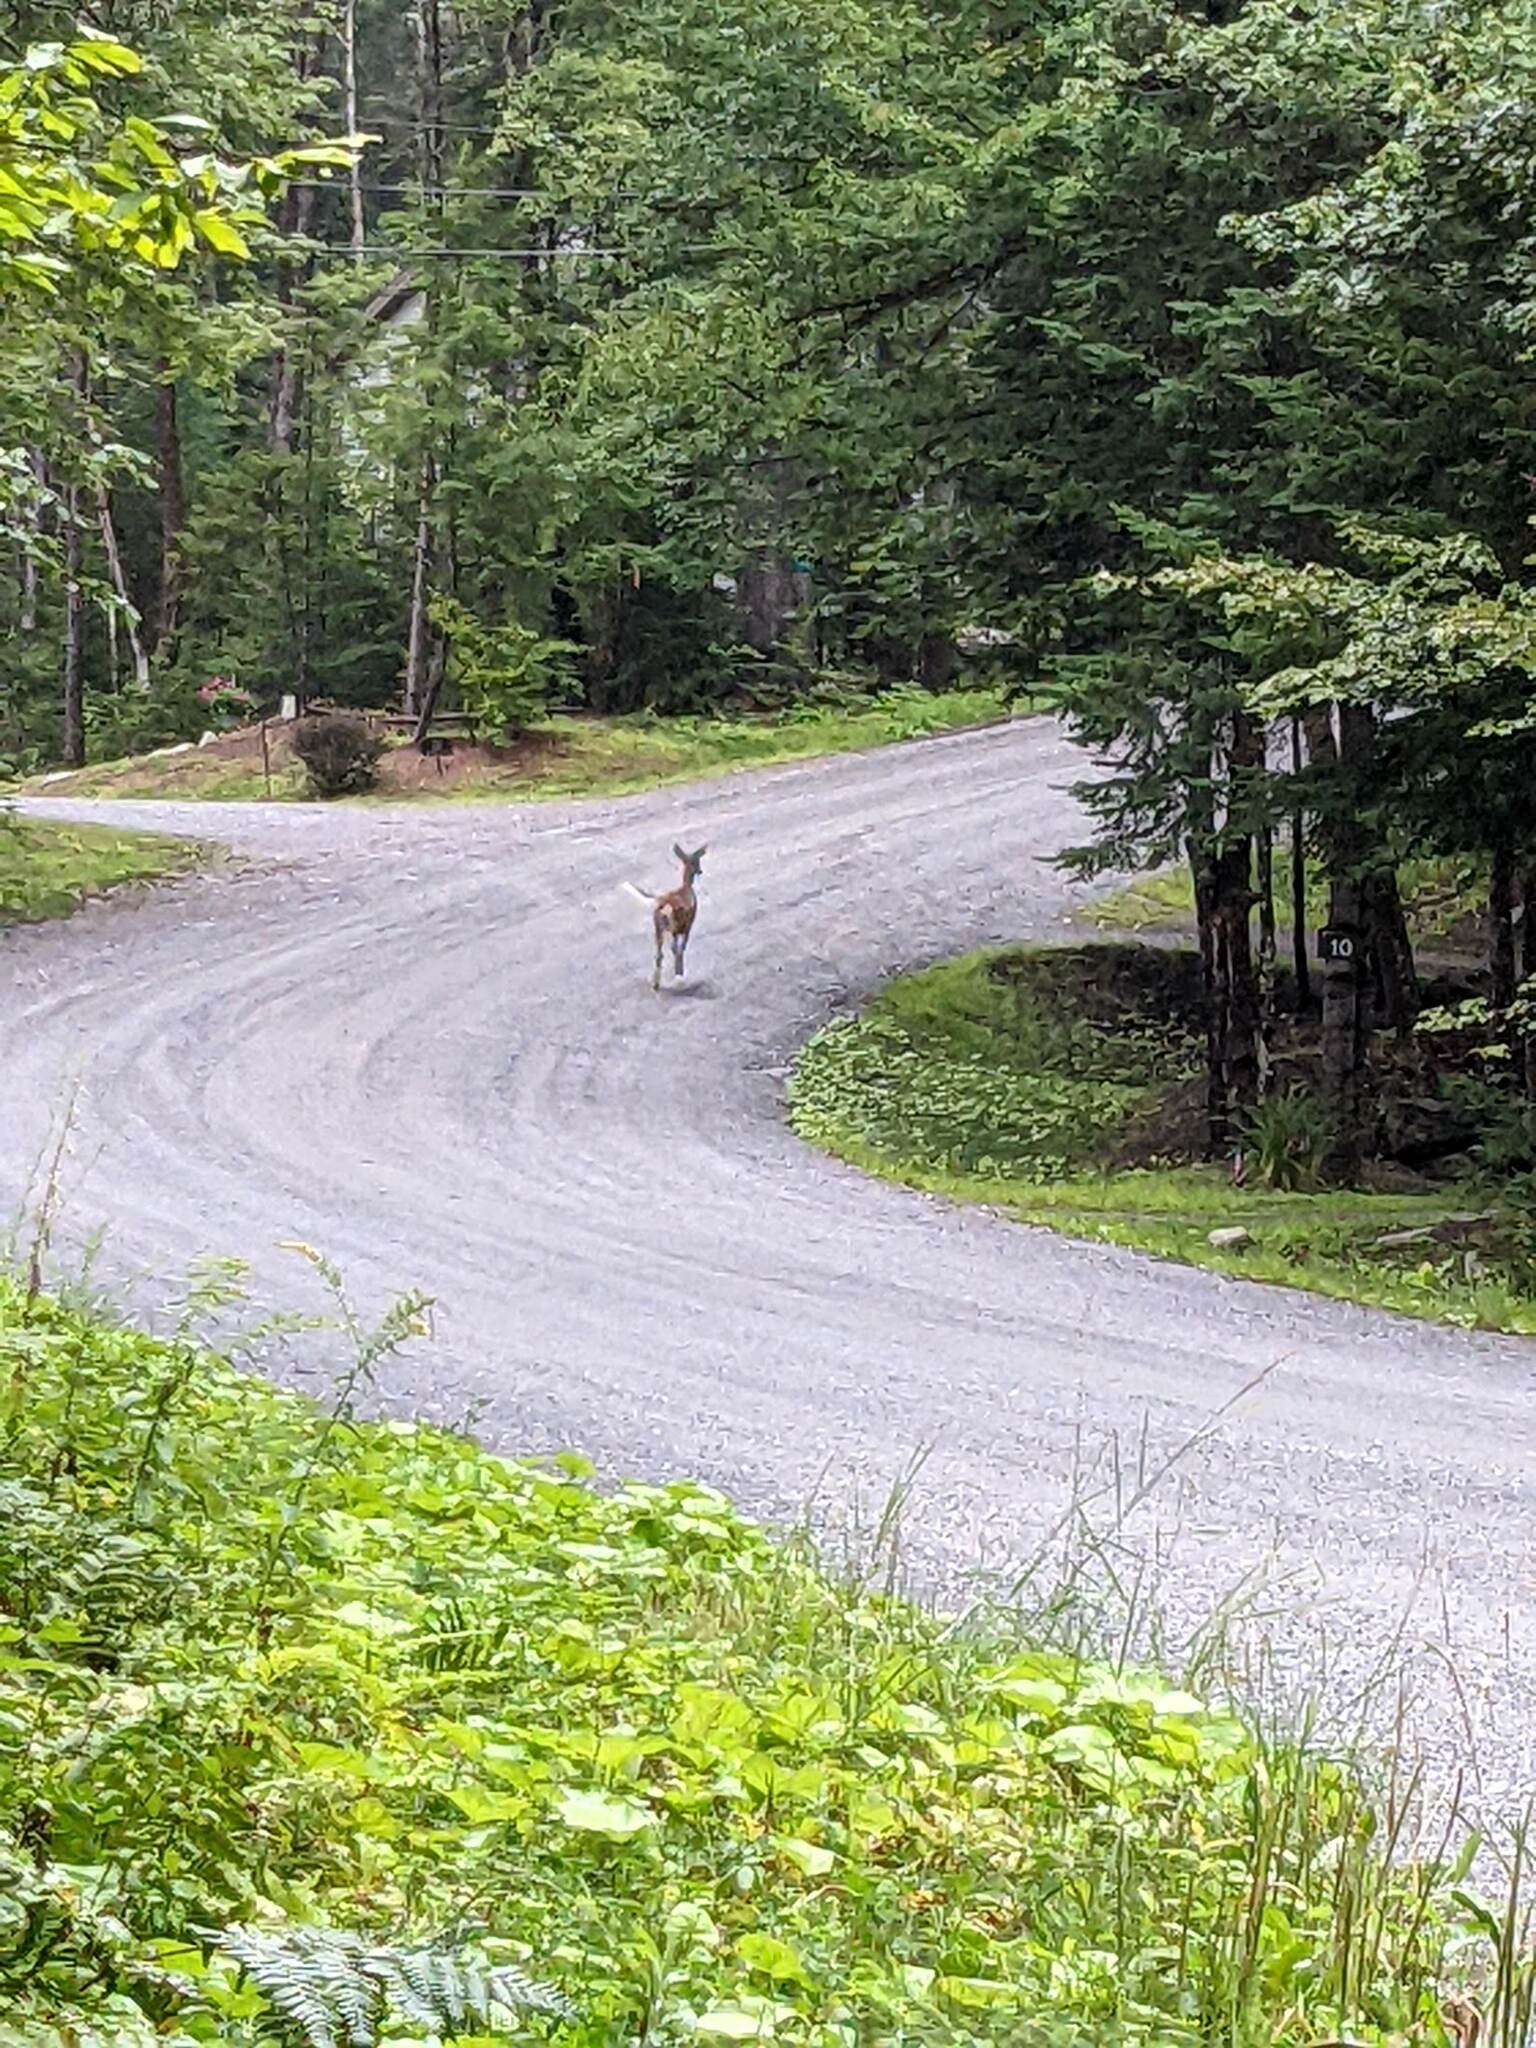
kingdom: Animalia
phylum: Chordata
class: Mammalia
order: Artiodactyla
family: Cervidae
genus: Odocoileus
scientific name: Odocoileus virginianus
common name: White-tailed deer
